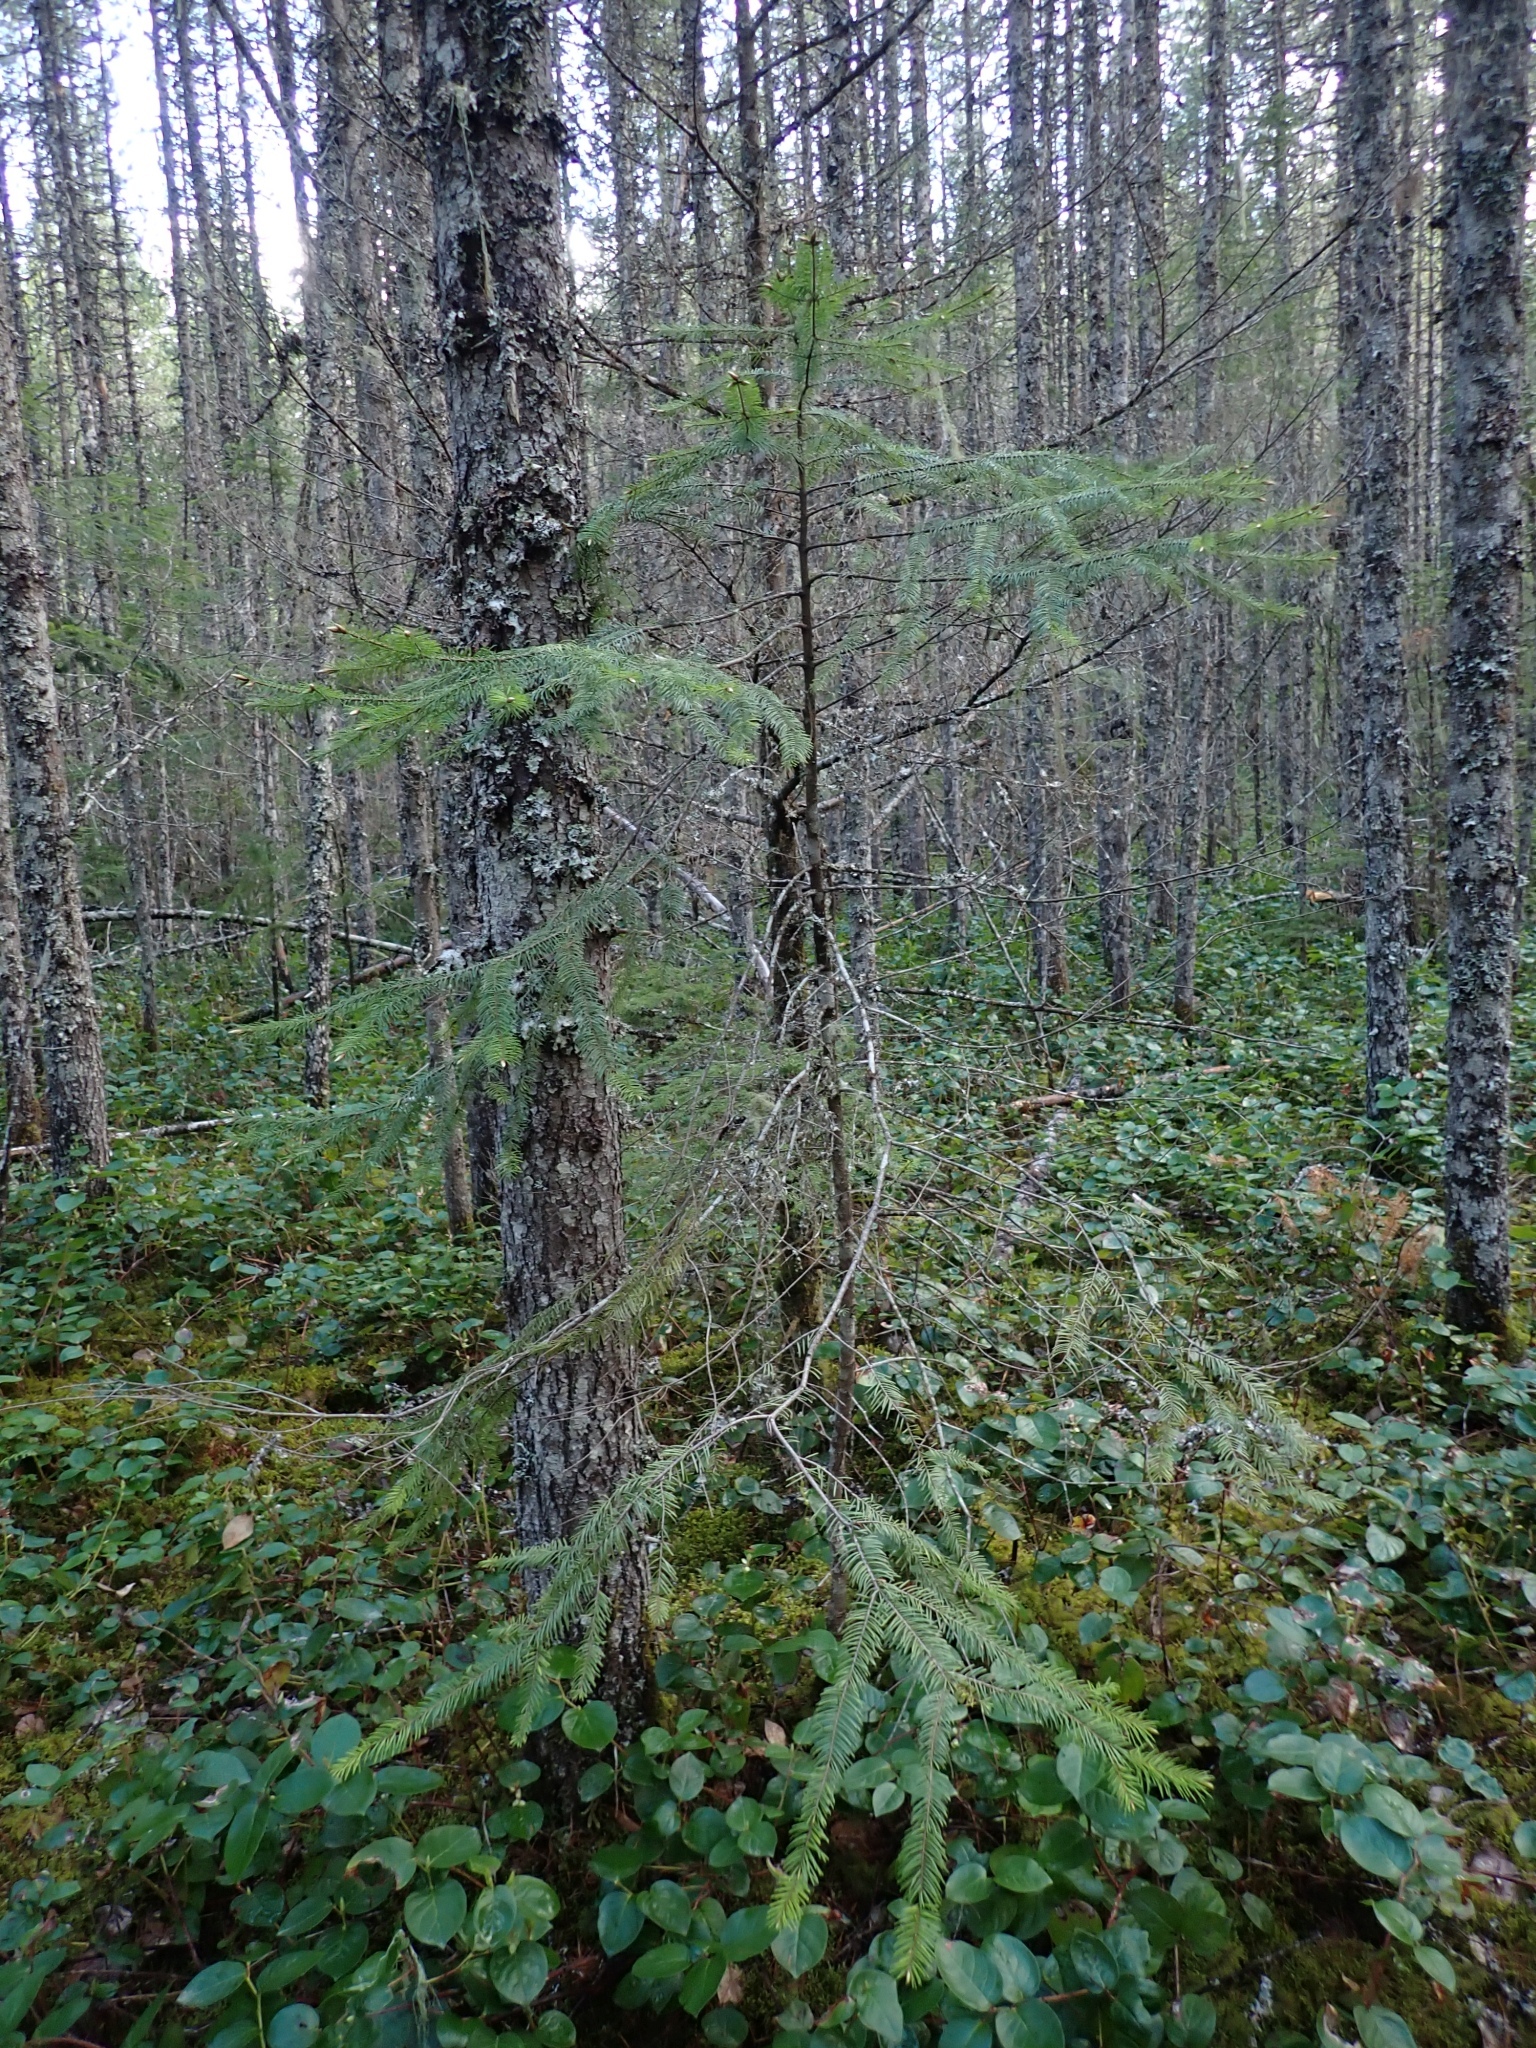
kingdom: Plantae
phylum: Tracheophyta
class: Pinopsida
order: Pinales
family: Pinaceae
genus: Pseudotsuga
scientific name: Pseudotsuga menziesii
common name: Douglas fir
